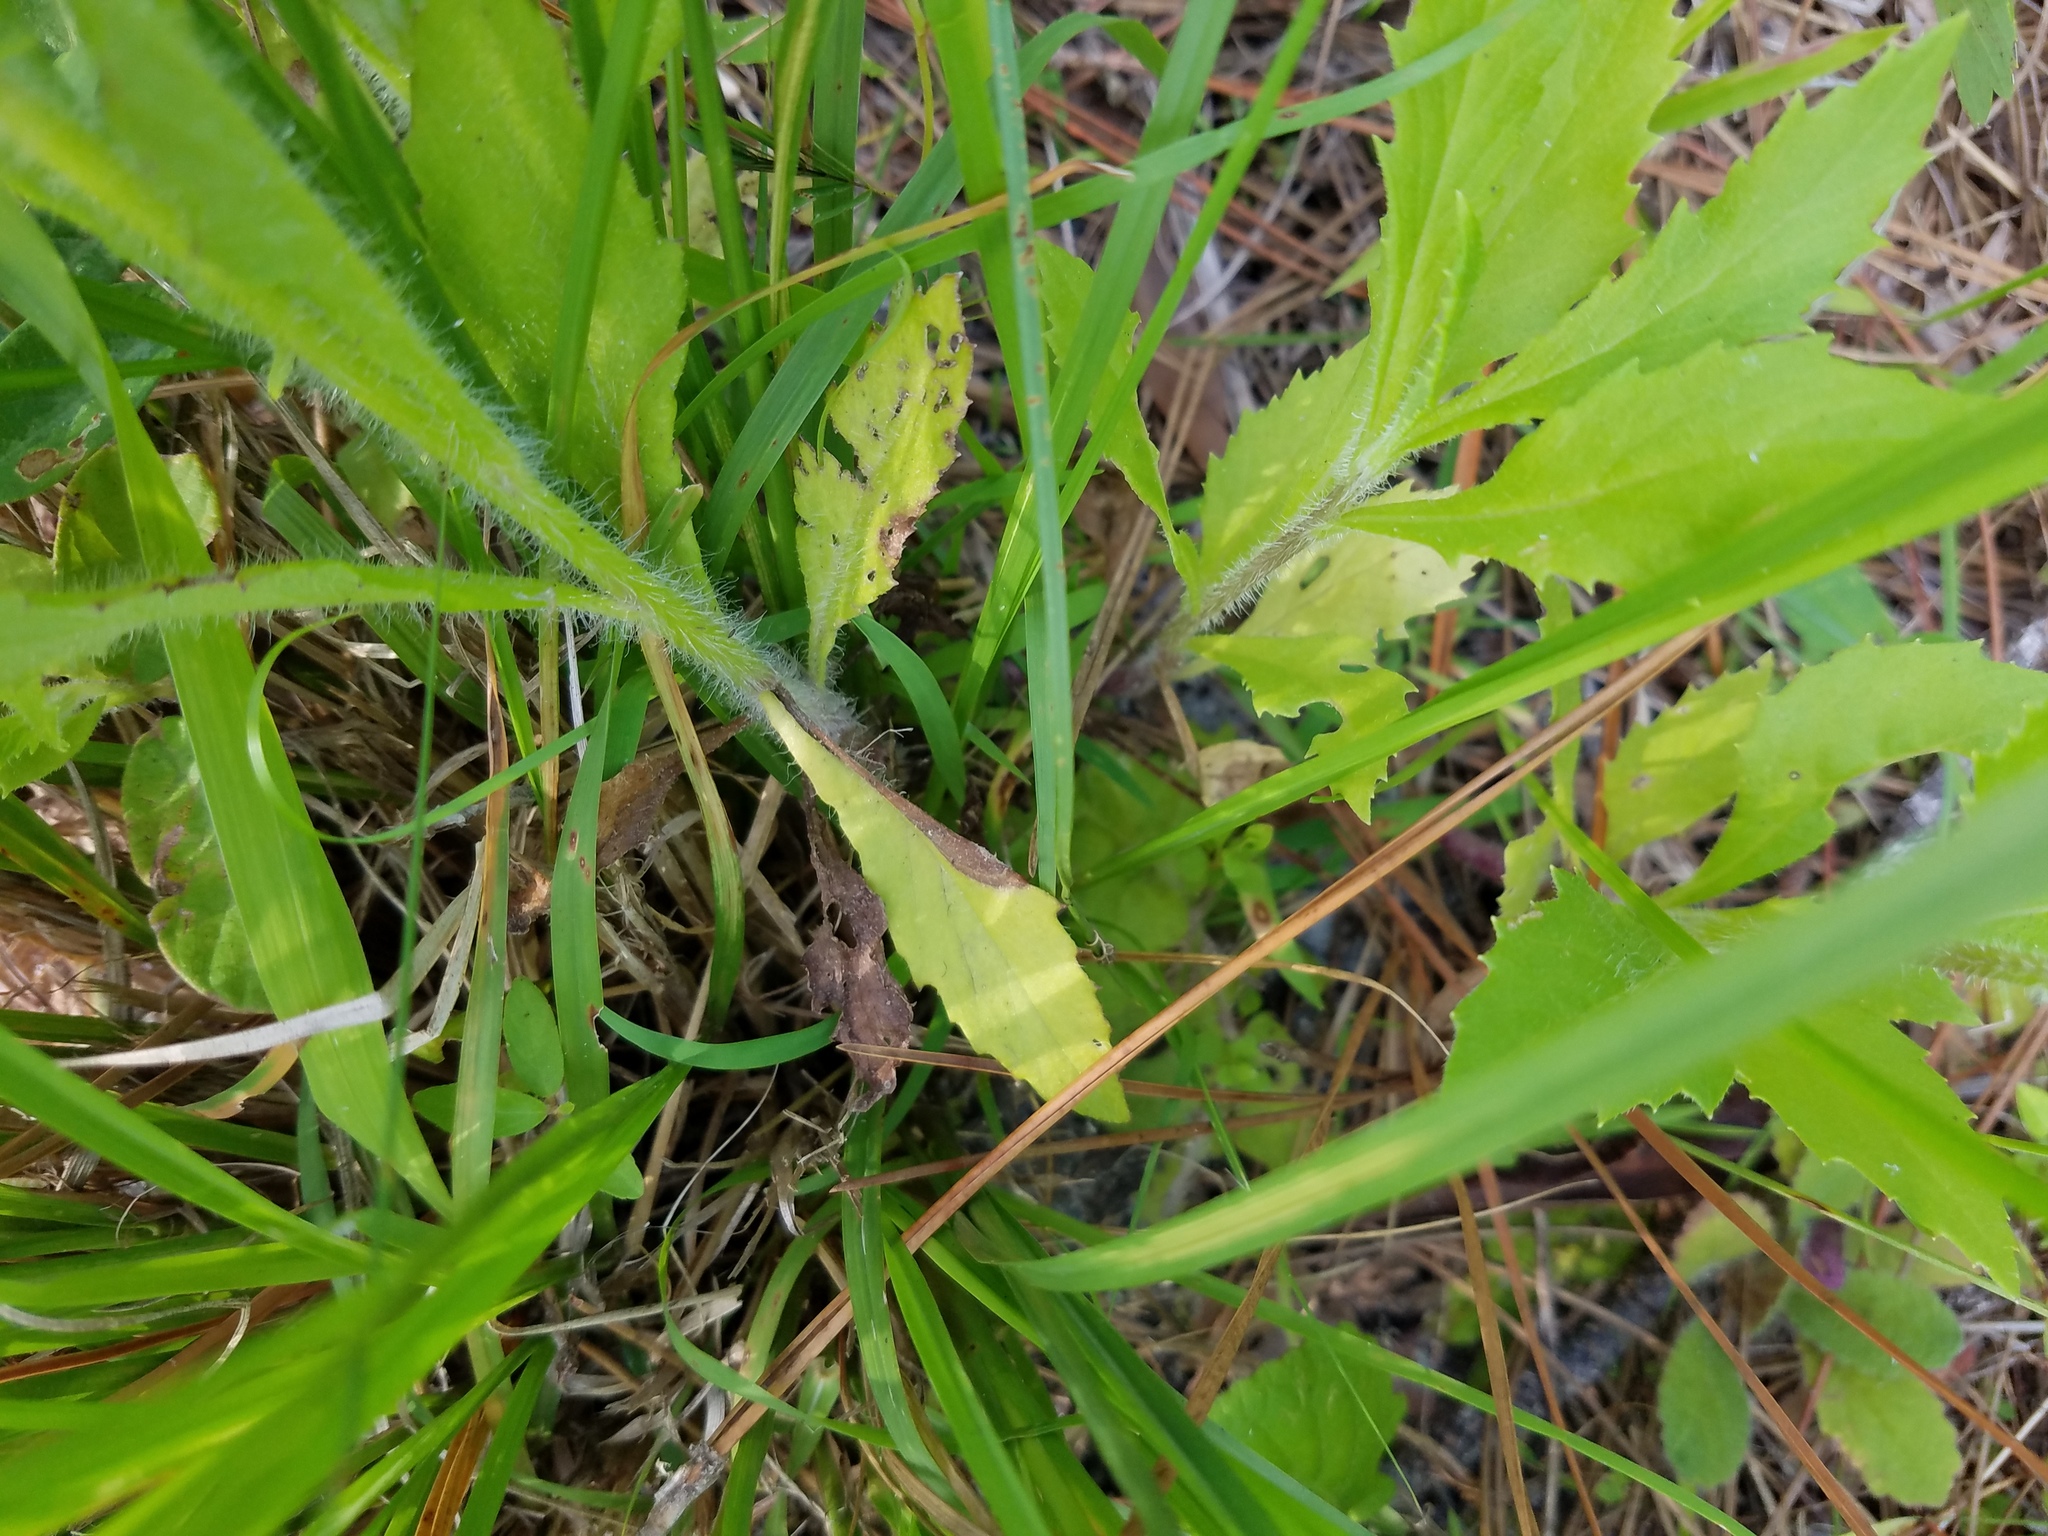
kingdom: Plantae
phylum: Tracheophyta
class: Magnoliopsida
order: Asterales
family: Asteraceae
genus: Erechtites
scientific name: Erechtites hieraciifolius
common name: American burnweed
